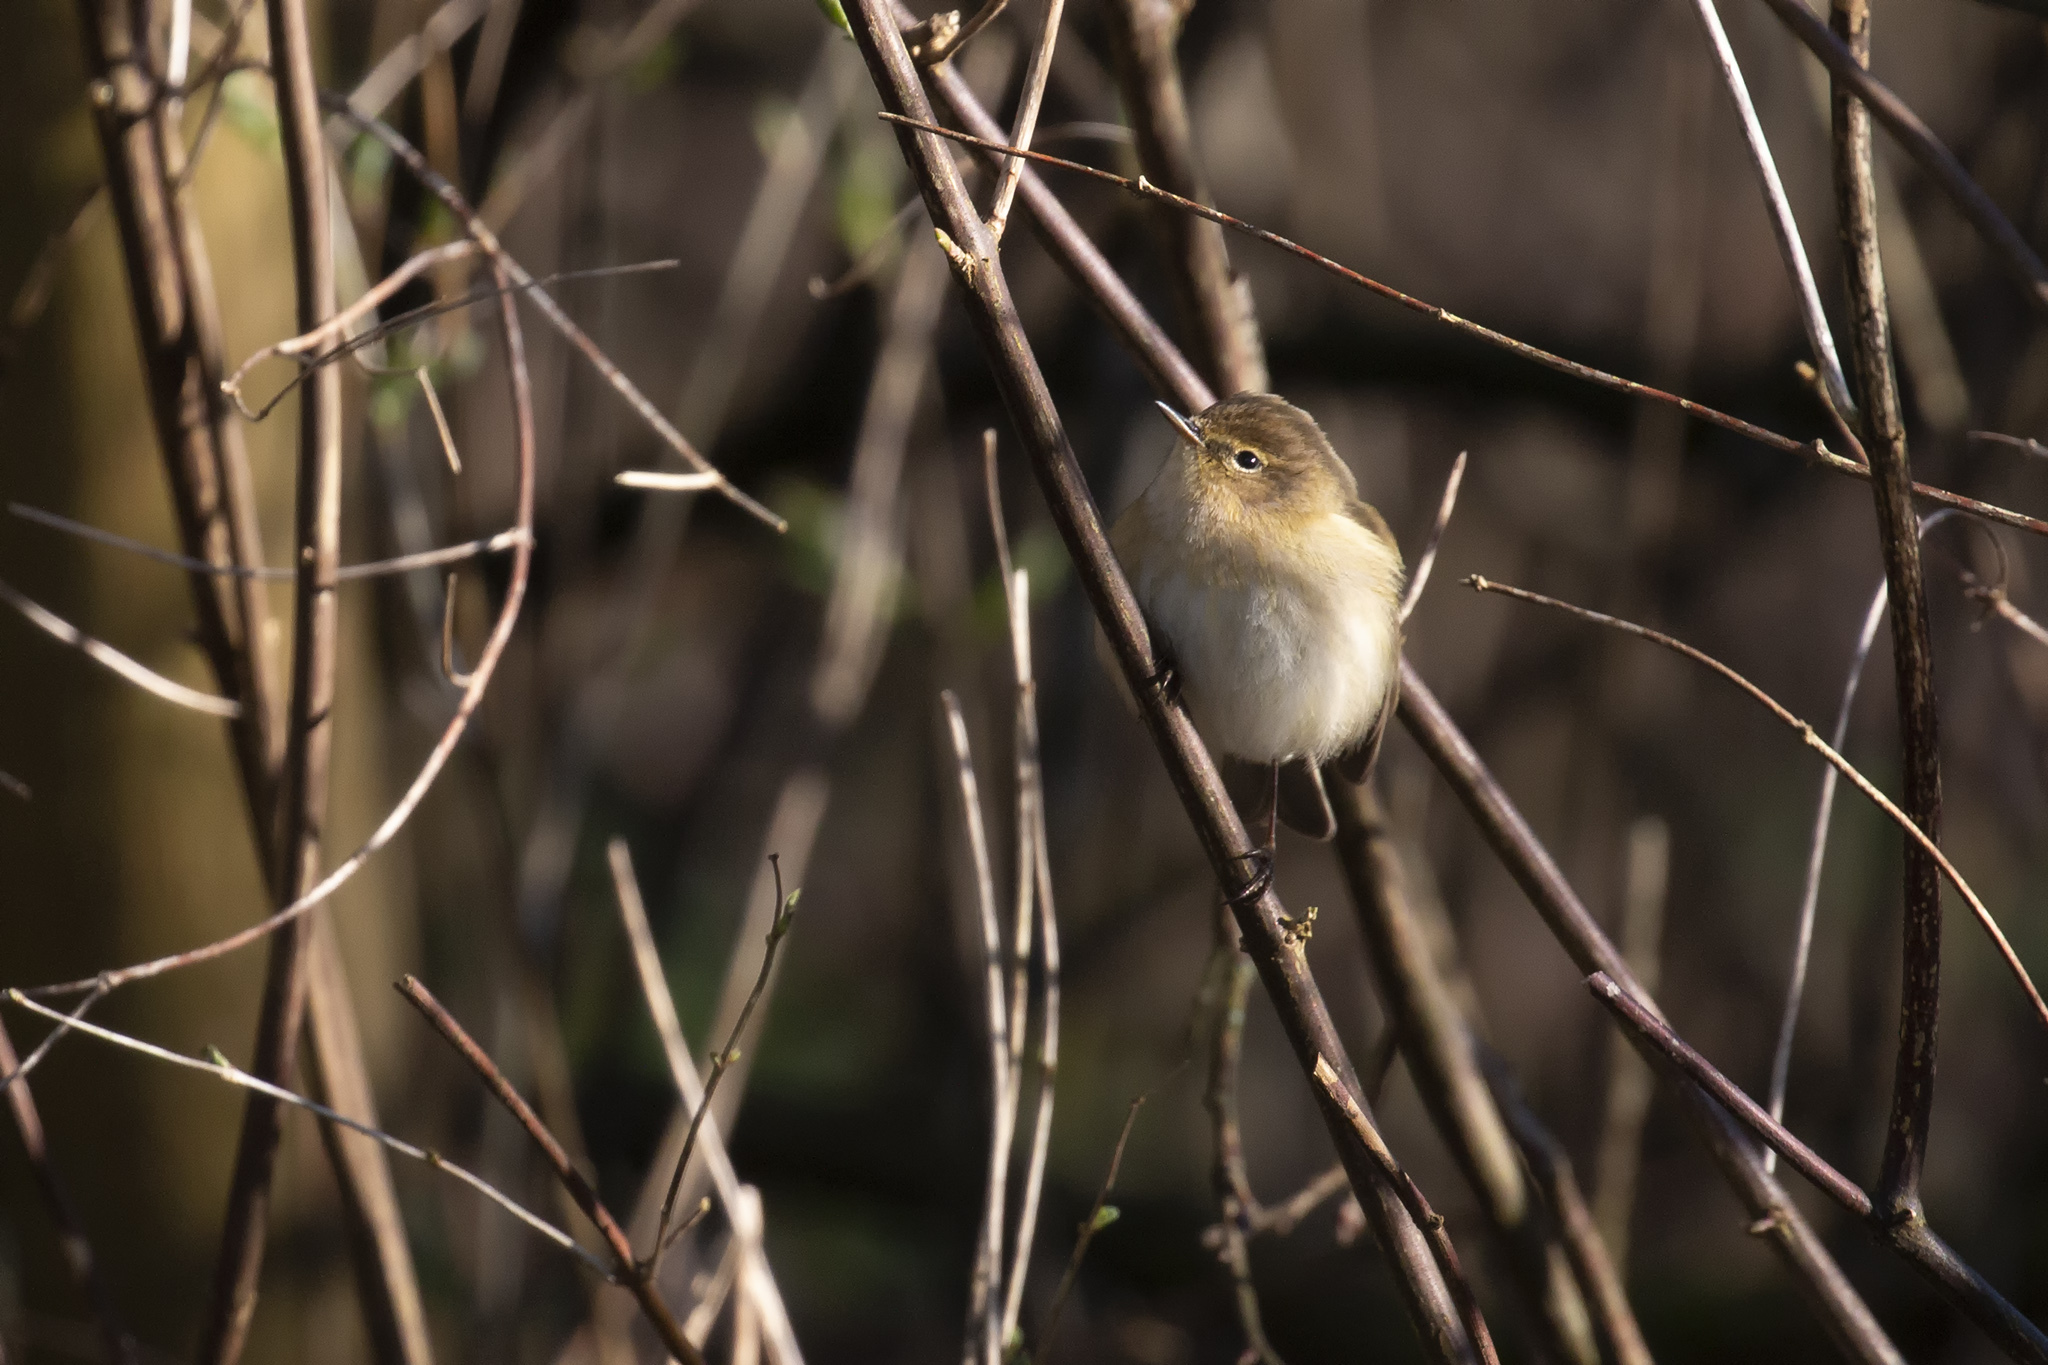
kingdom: Animalia
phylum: Chordata
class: Aves
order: Passeriformes
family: Phylloscopidae
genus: Phylloscopus
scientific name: Phylloscopus collybita
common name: Common chiffchaff
